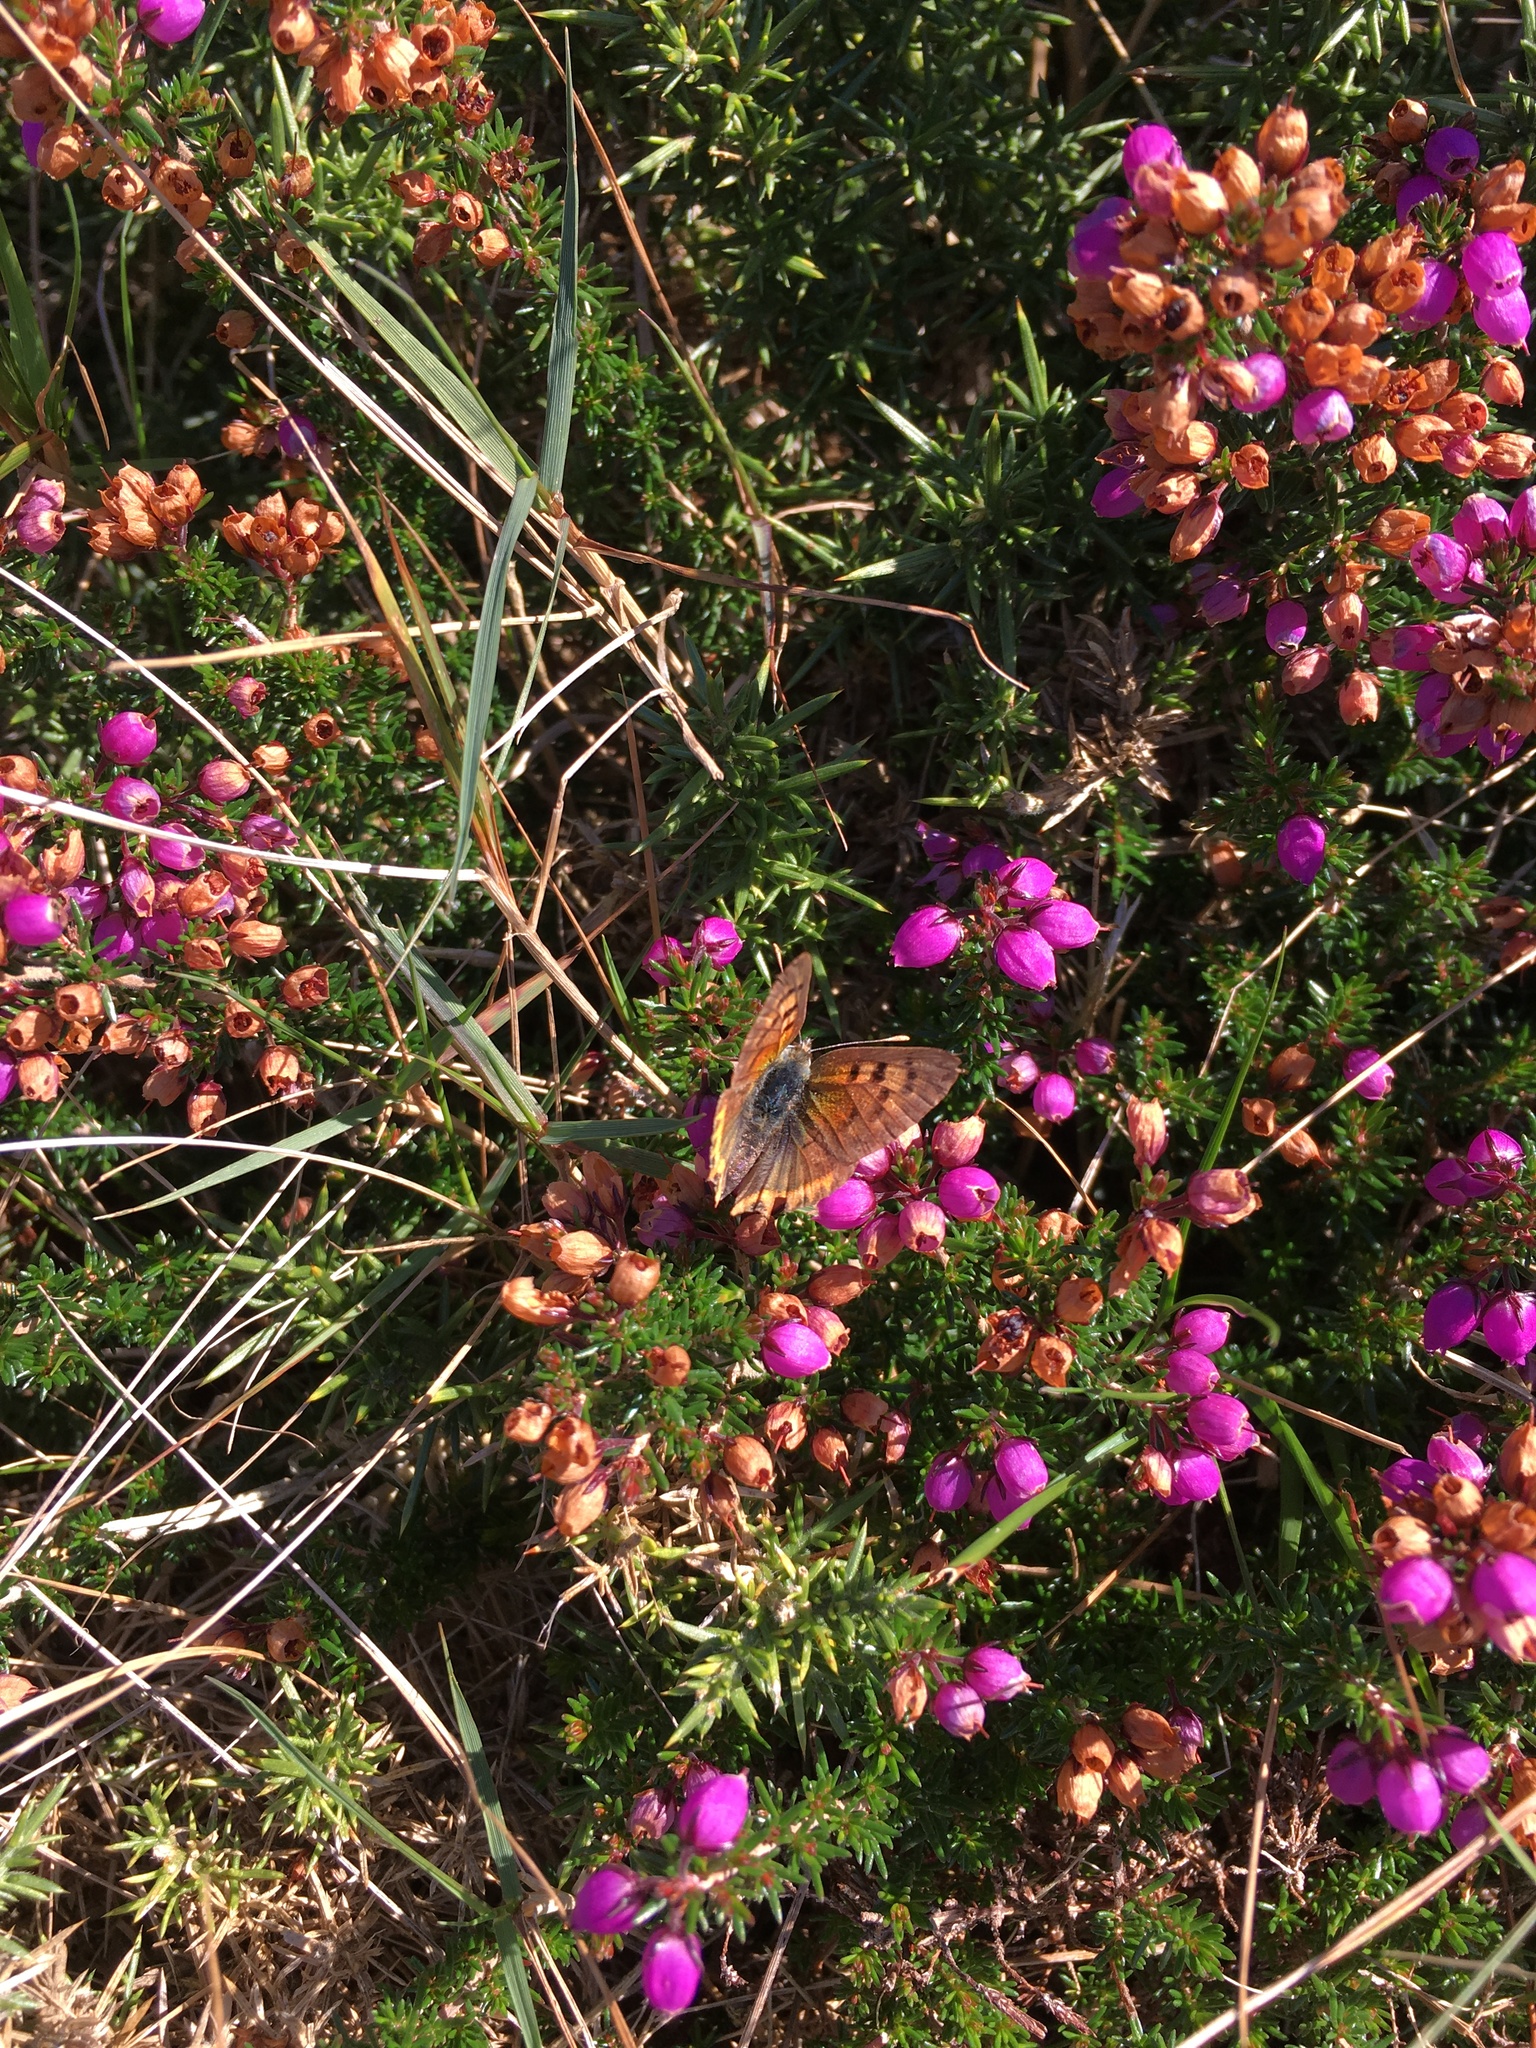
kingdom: Animalia
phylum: Arthropoda
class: Insecta
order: Lepidoptera
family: Lycaenidae
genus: Lycaena
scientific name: Lycaena phlaeas
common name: Small copper
